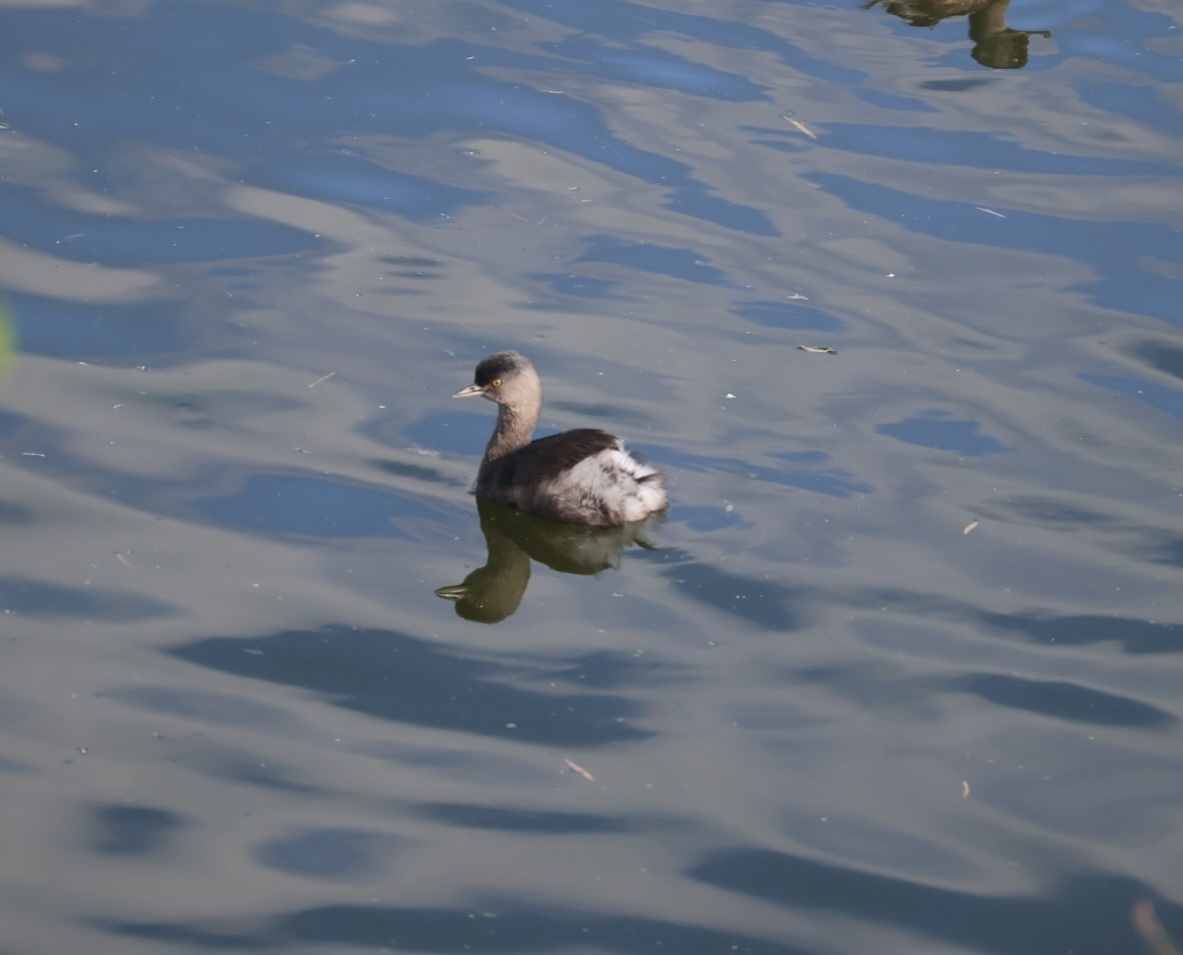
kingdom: Animalia
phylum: Chordata
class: Aves
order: Podicipediformes
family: Podicipedidae
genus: Tachybaptus
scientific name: Tachybaptus dominicus
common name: Least grebe
